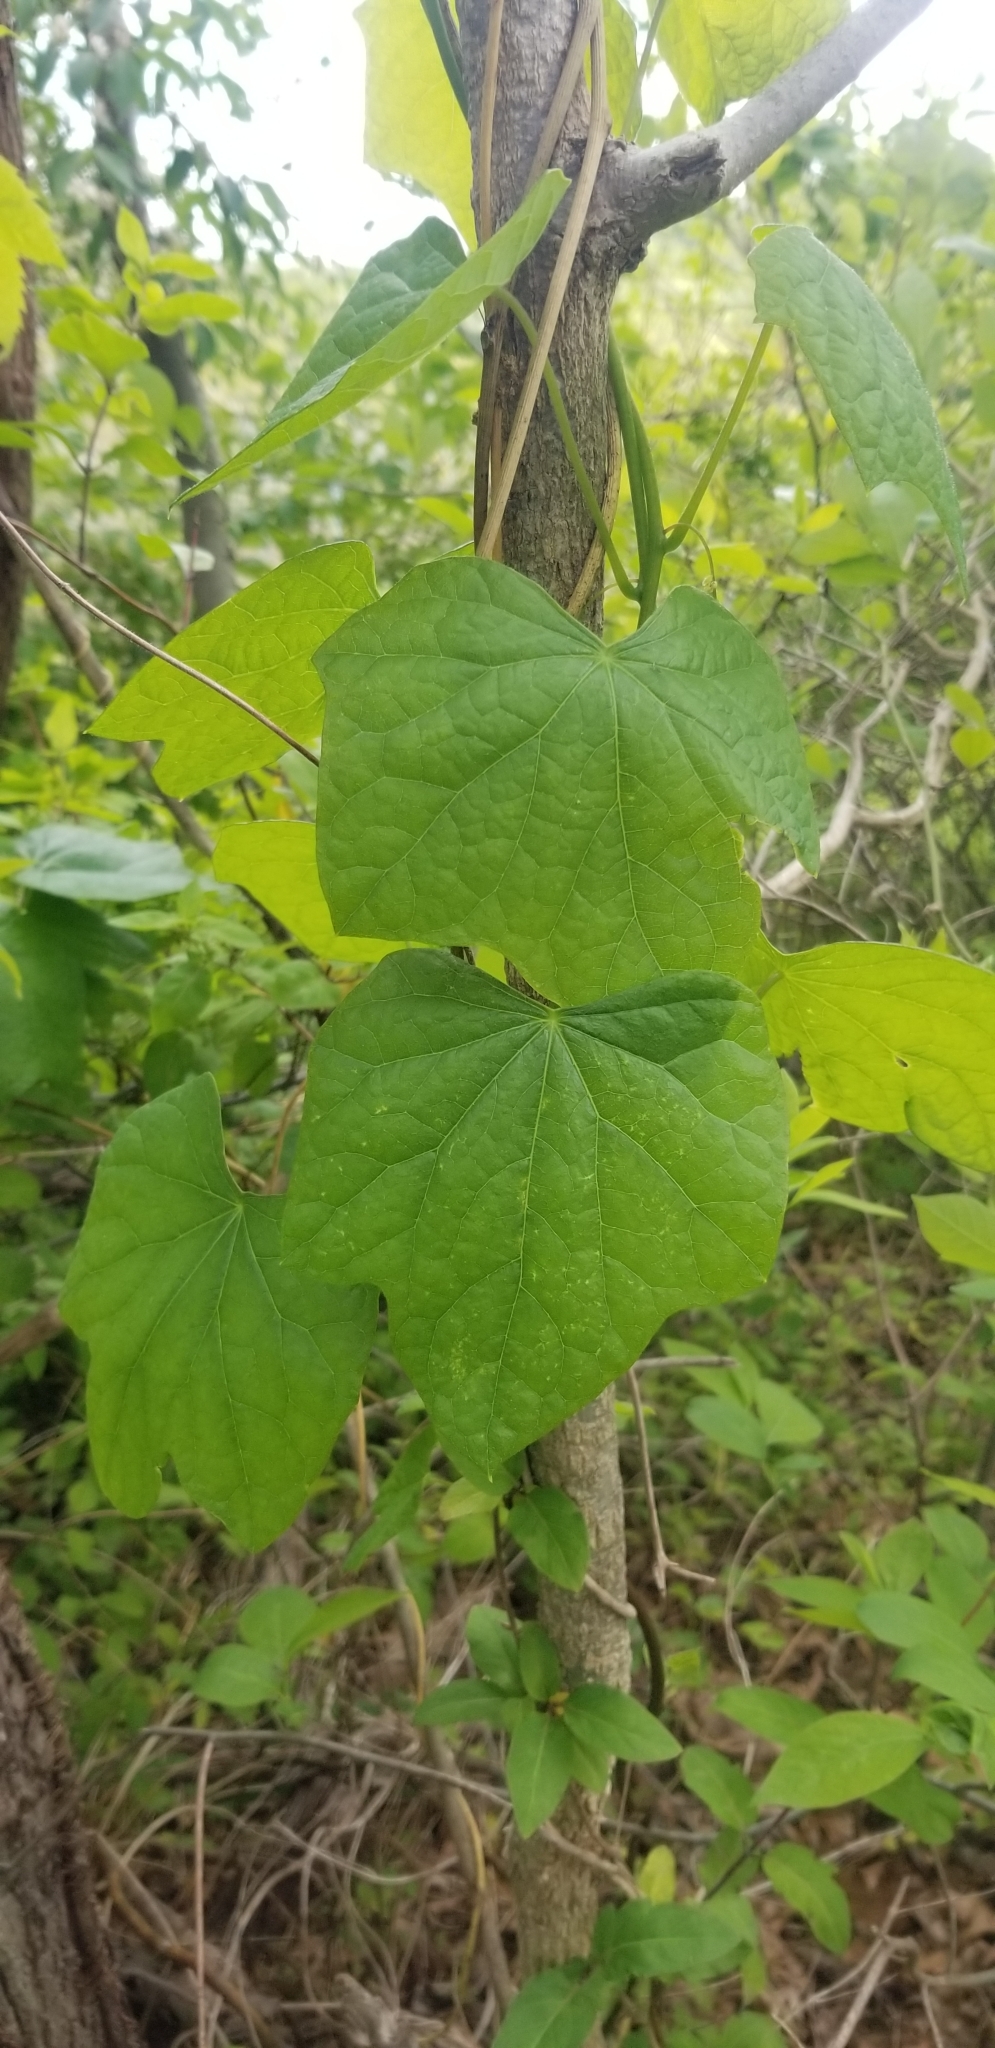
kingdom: Plantae
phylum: Tracheophyta
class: Magnoliopsida
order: Ranunculales
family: Menispermaceae
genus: Menispermum
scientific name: Menispermum canadense
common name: Moonseed
